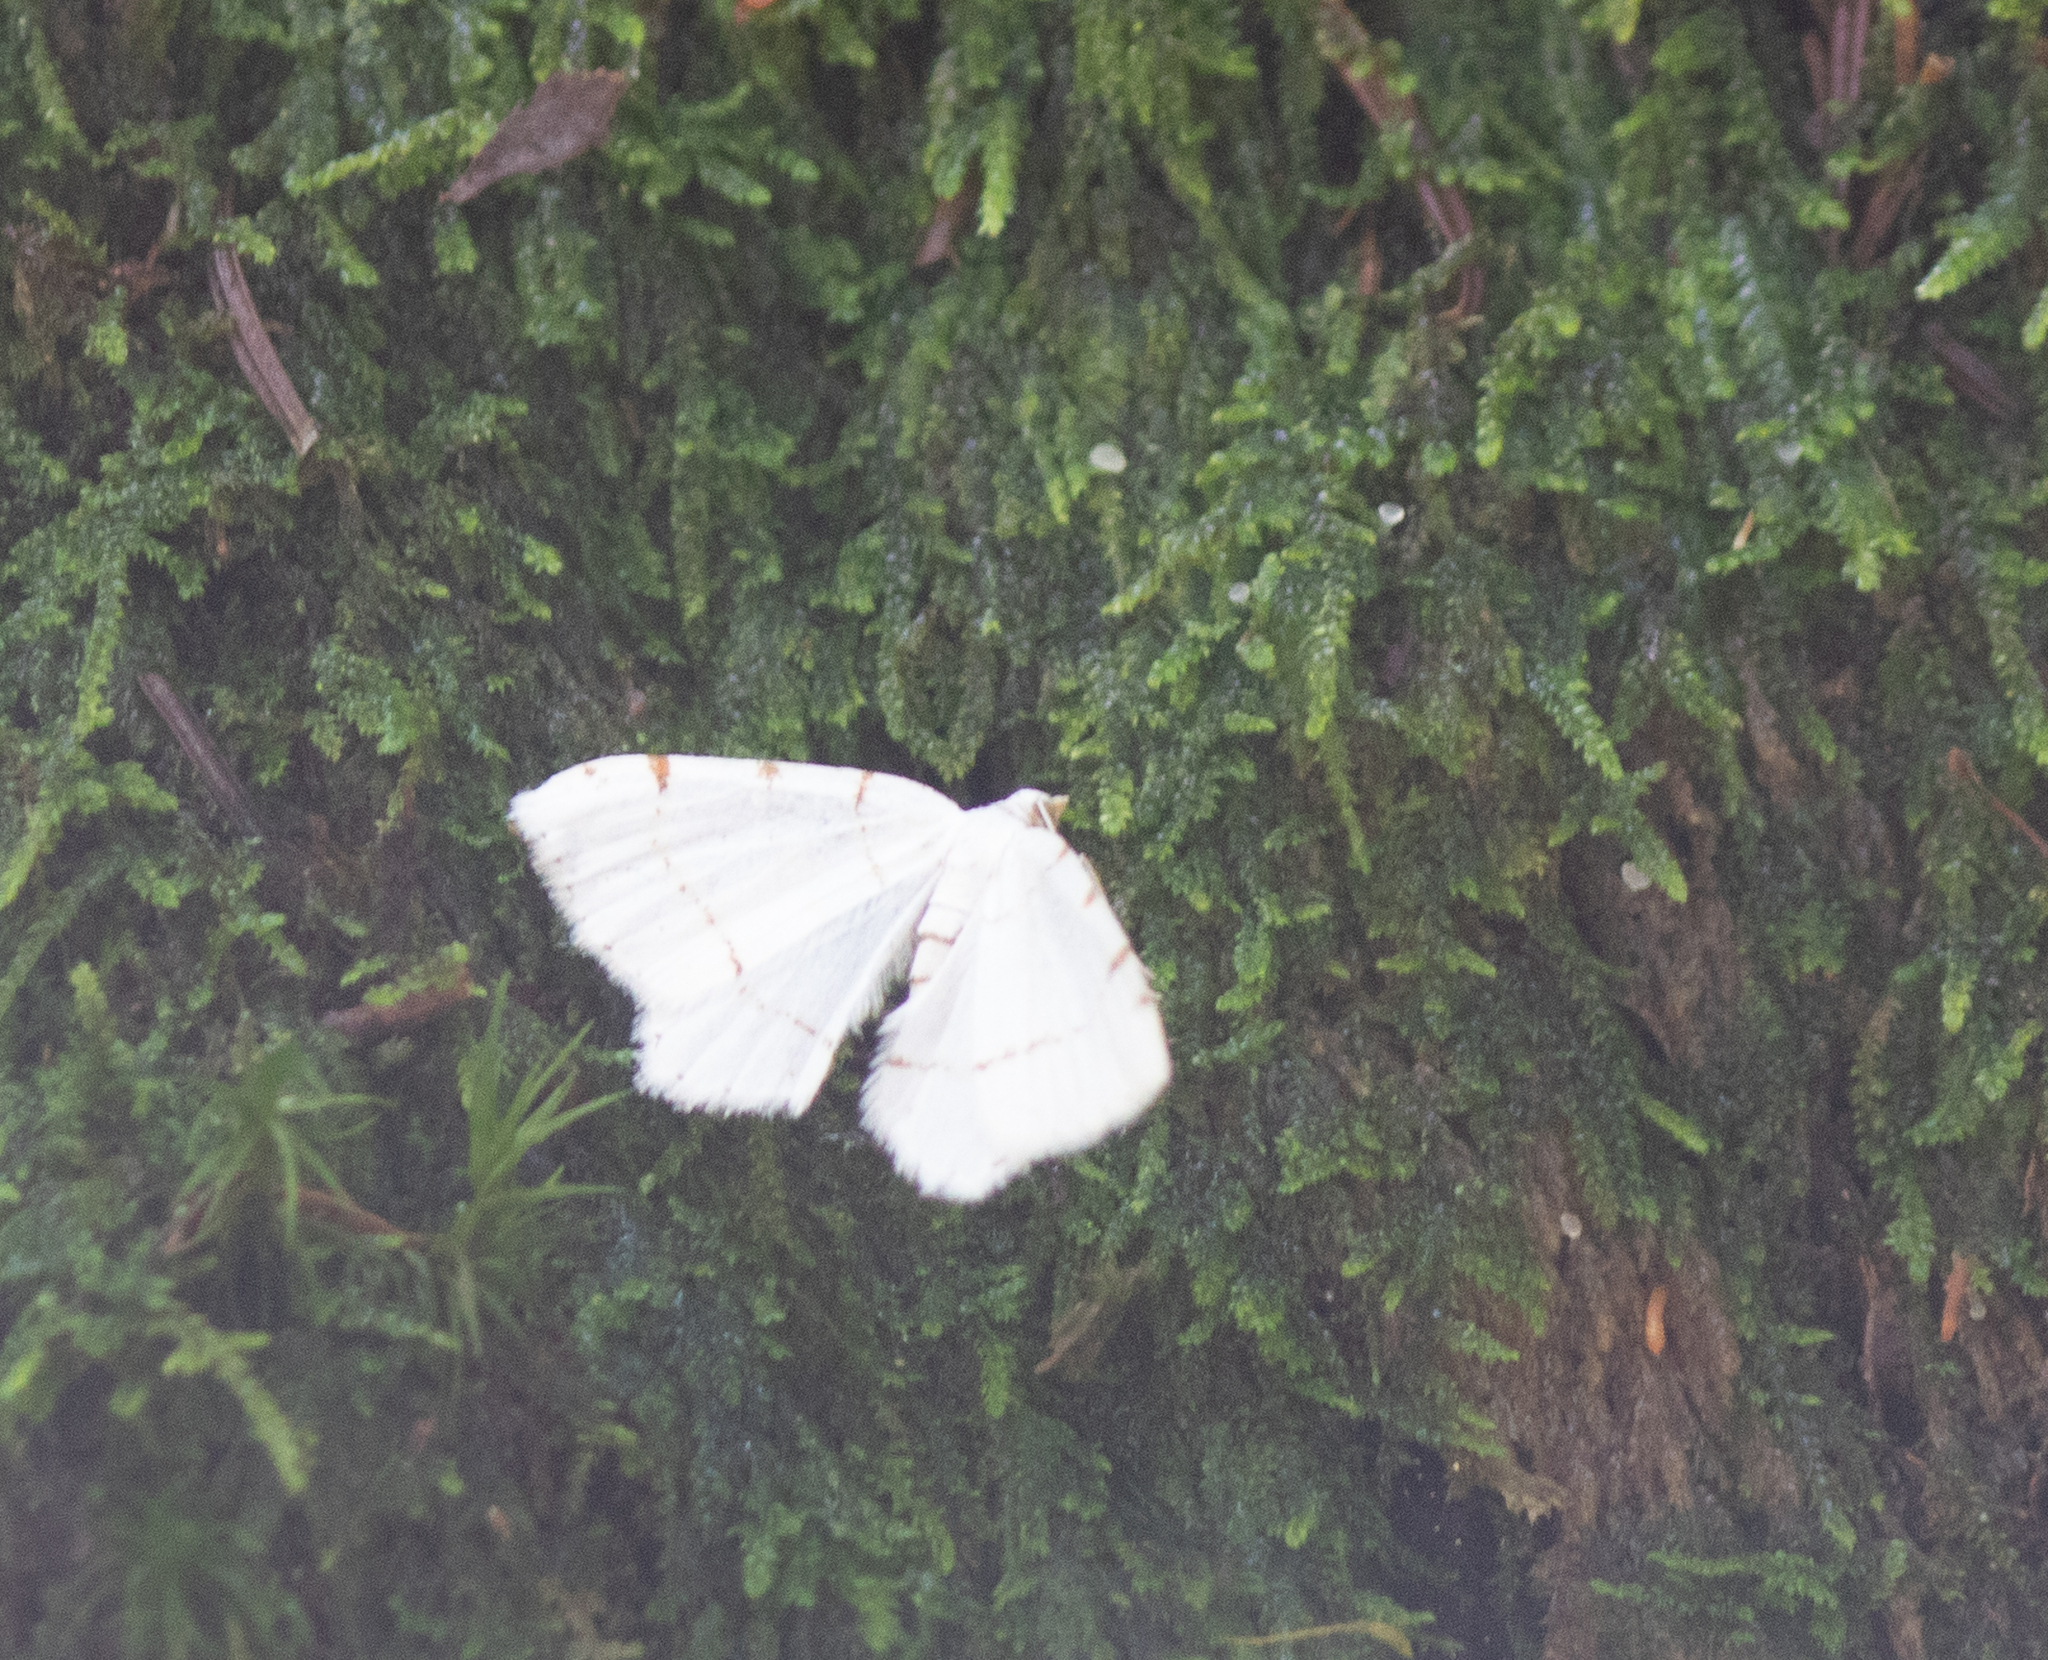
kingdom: Animalia
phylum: Arthropoda
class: Insecta
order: Lepidoptera
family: Geometridae
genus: Macaria
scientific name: Macaria pustularia
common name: Lesser maple spanworm moth
